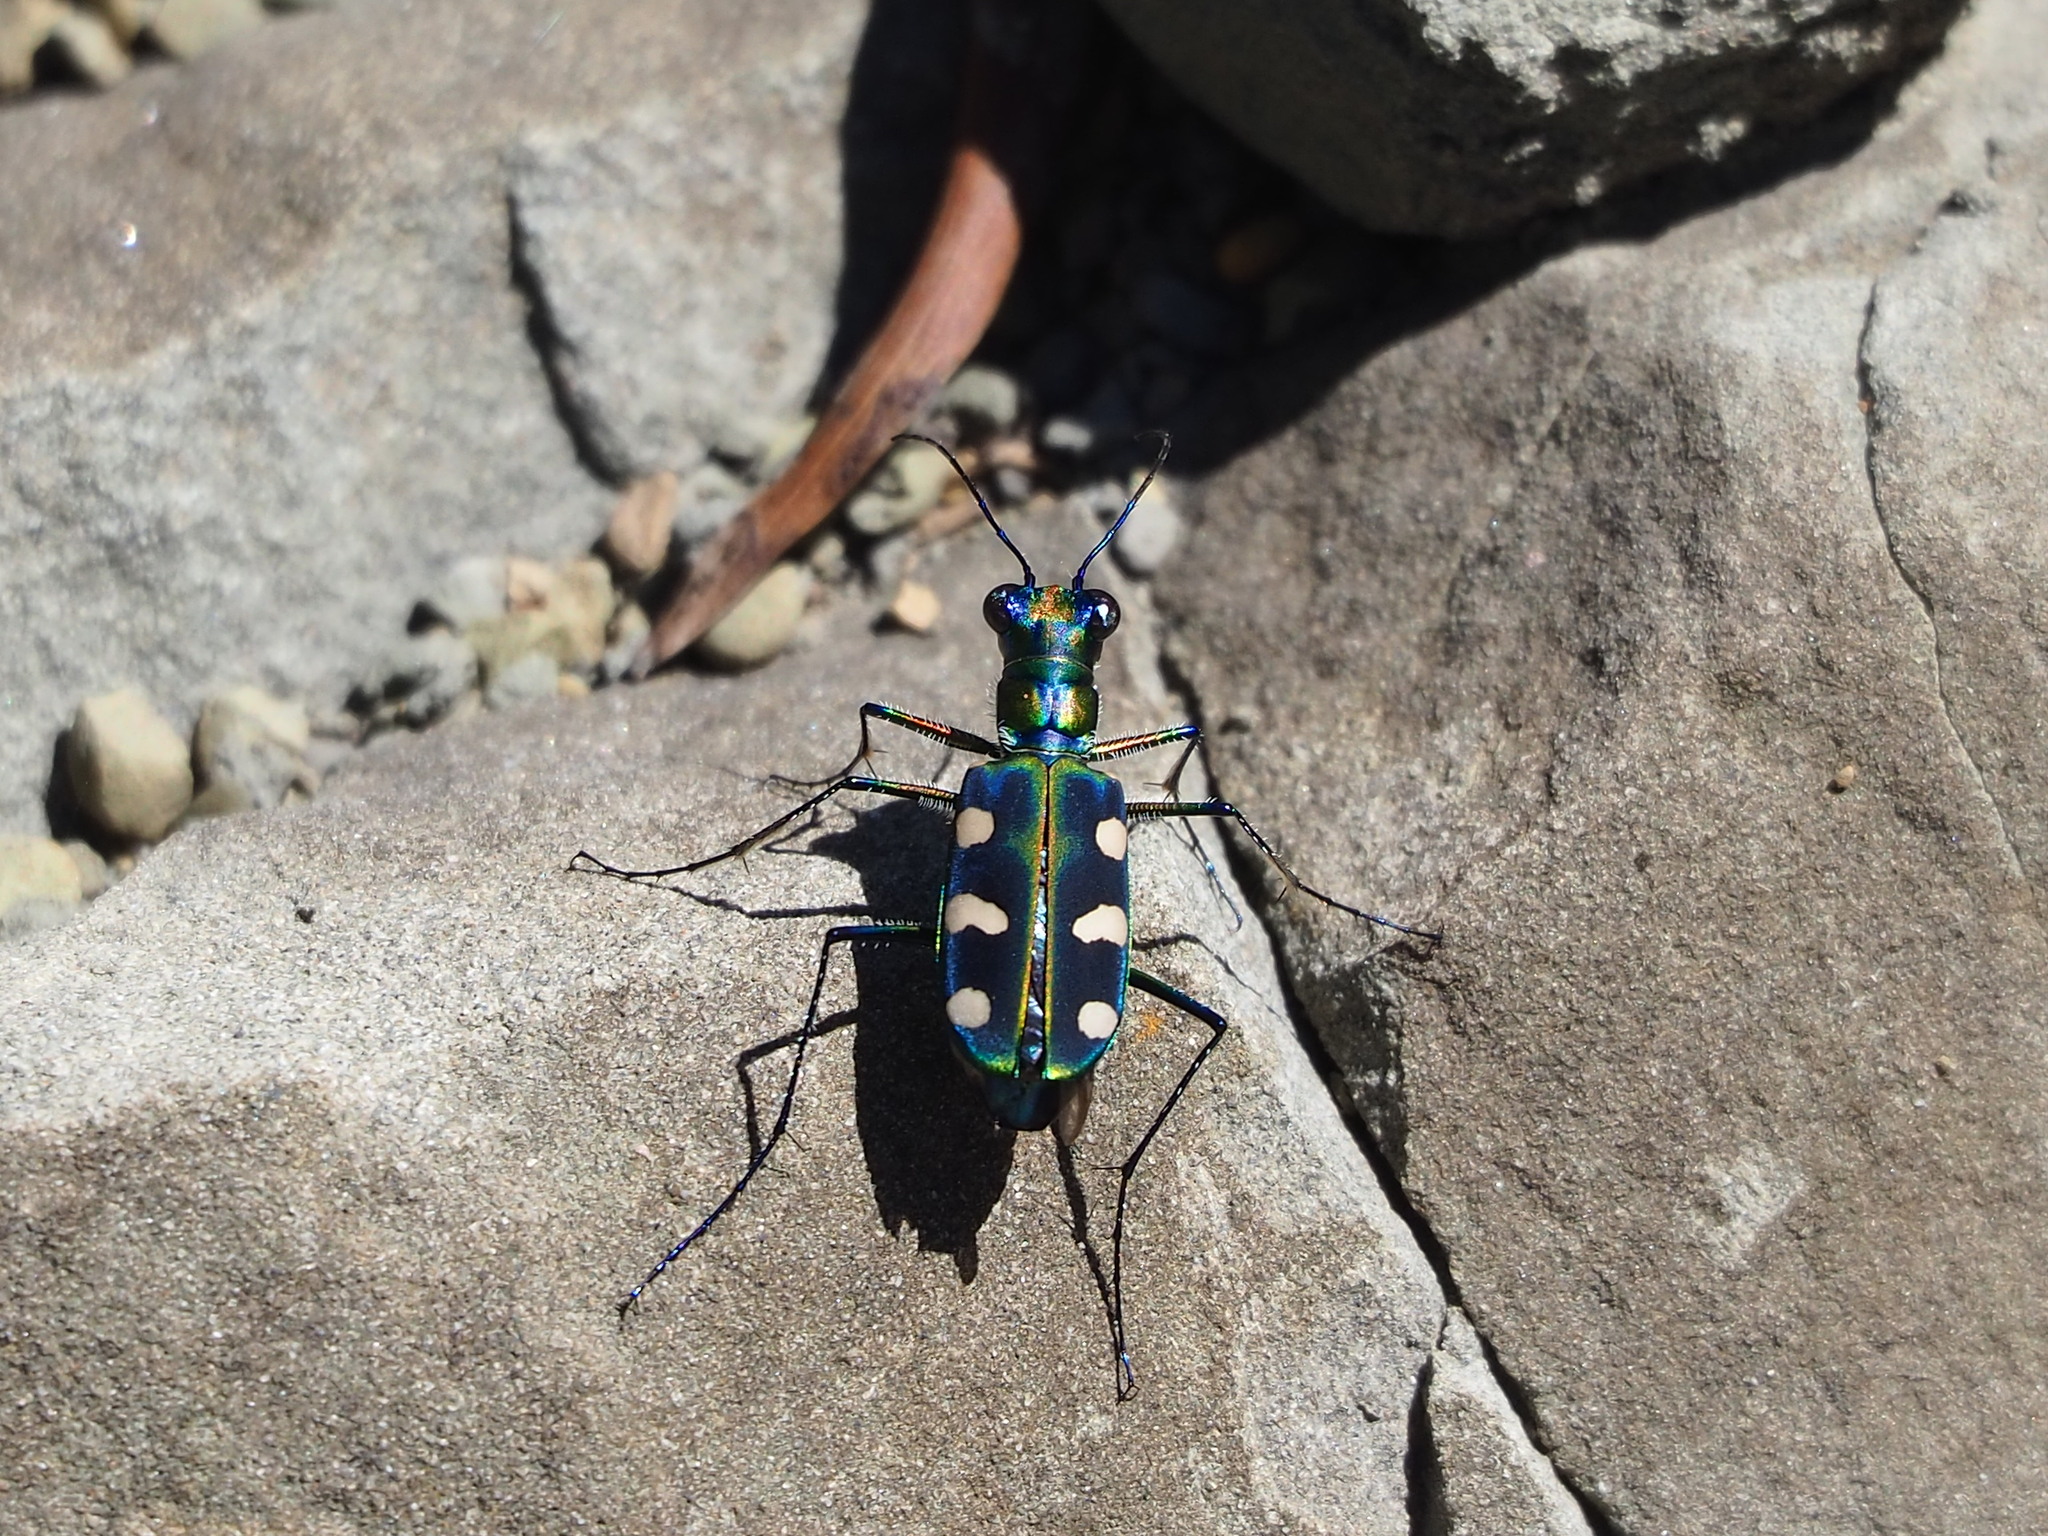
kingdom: Animalia
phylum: Arthropoda
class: Insecta
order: Coleoptera
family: Carabidae
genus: Cicindela
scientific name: Cicindela batesi
